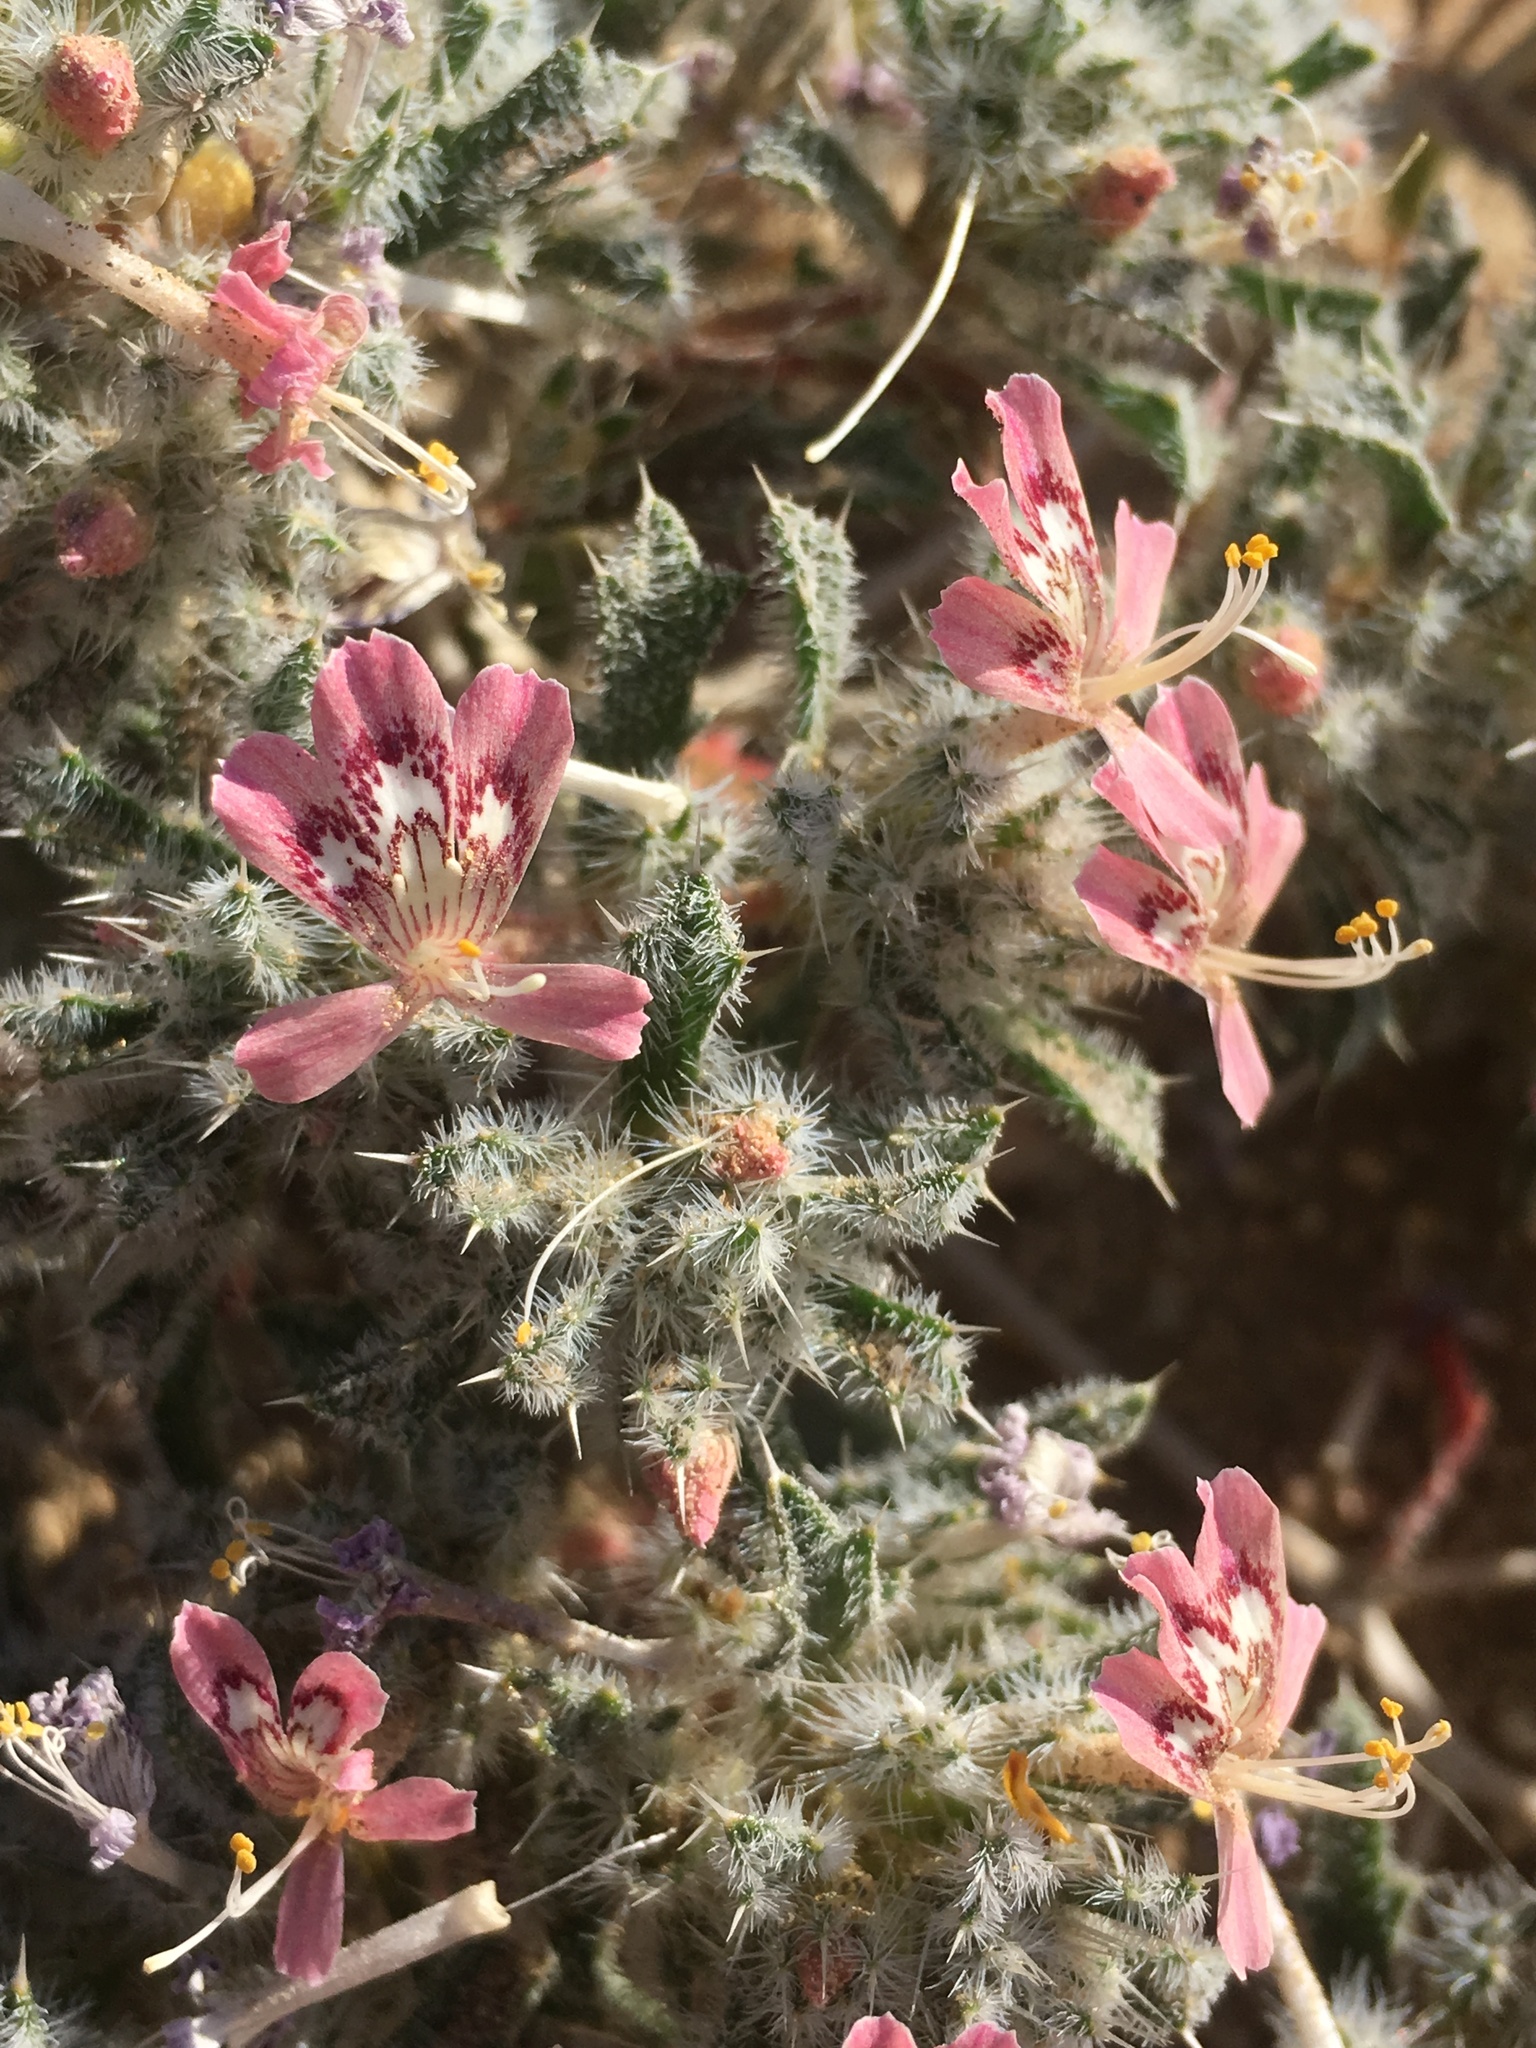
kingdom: Plantae
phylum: Tracheophyta
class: Magnoliopsida
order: Ericales
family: Polemoniaceae
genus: Loeseliastrum
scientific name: Loeseliastrum matthewsii
